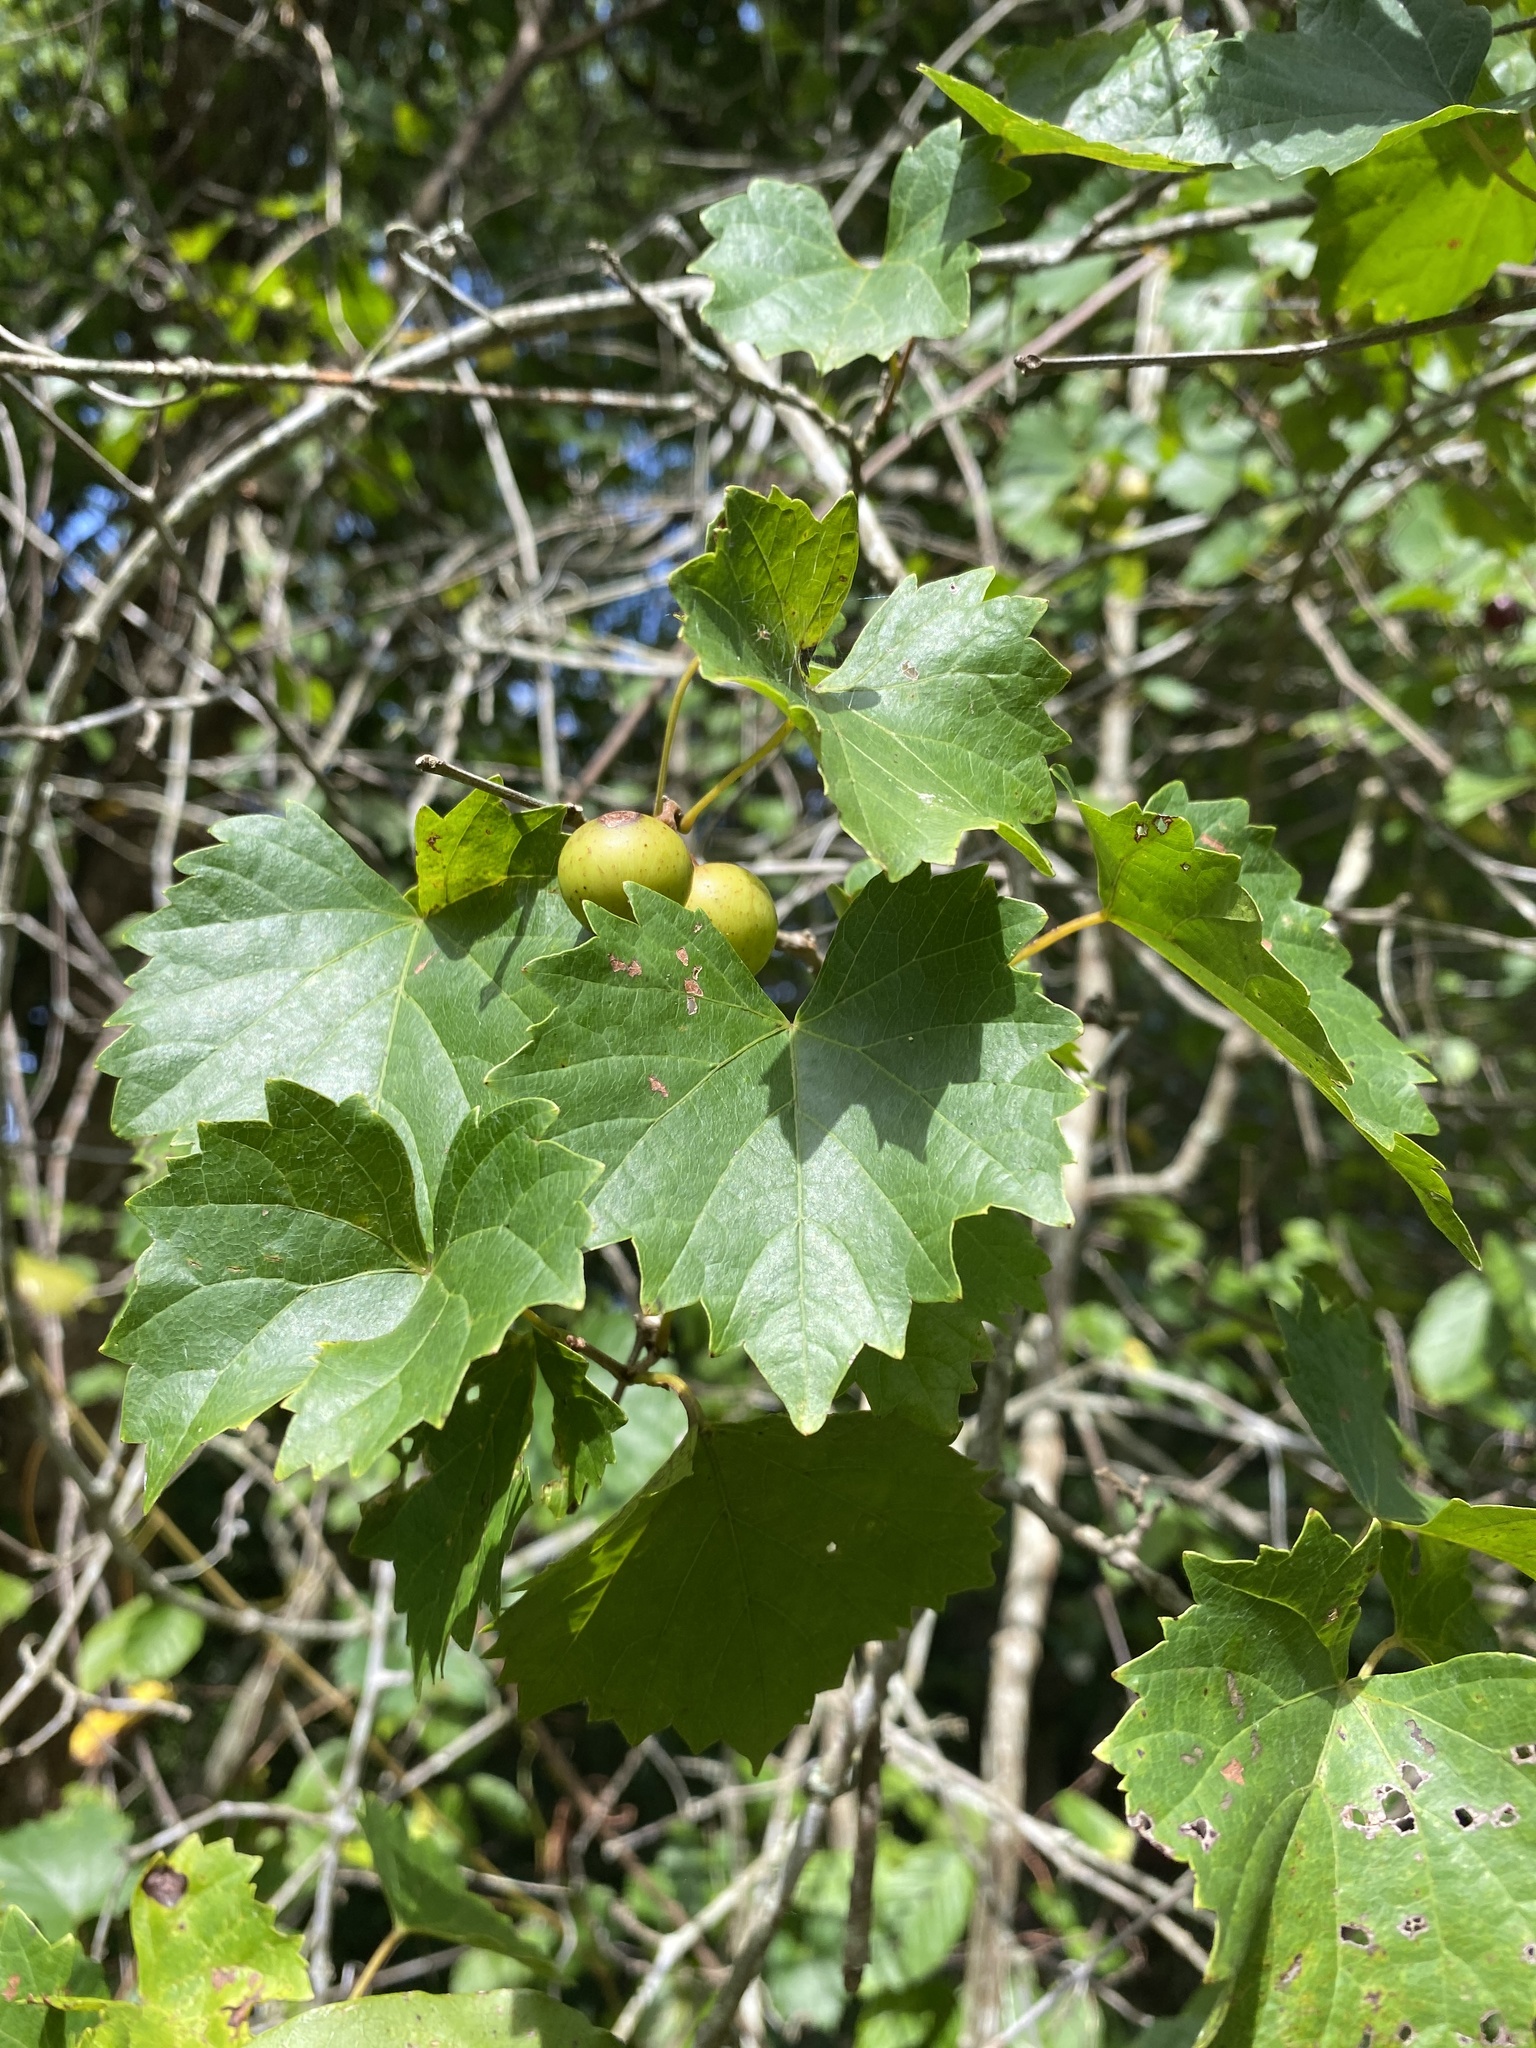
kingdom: Plantae
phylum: Tracheophyta
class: Magnoliopsida
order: Vitales
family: Vitaceae
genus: Vitis
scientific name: Vitis rotundifolia
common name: Muscadine grape
